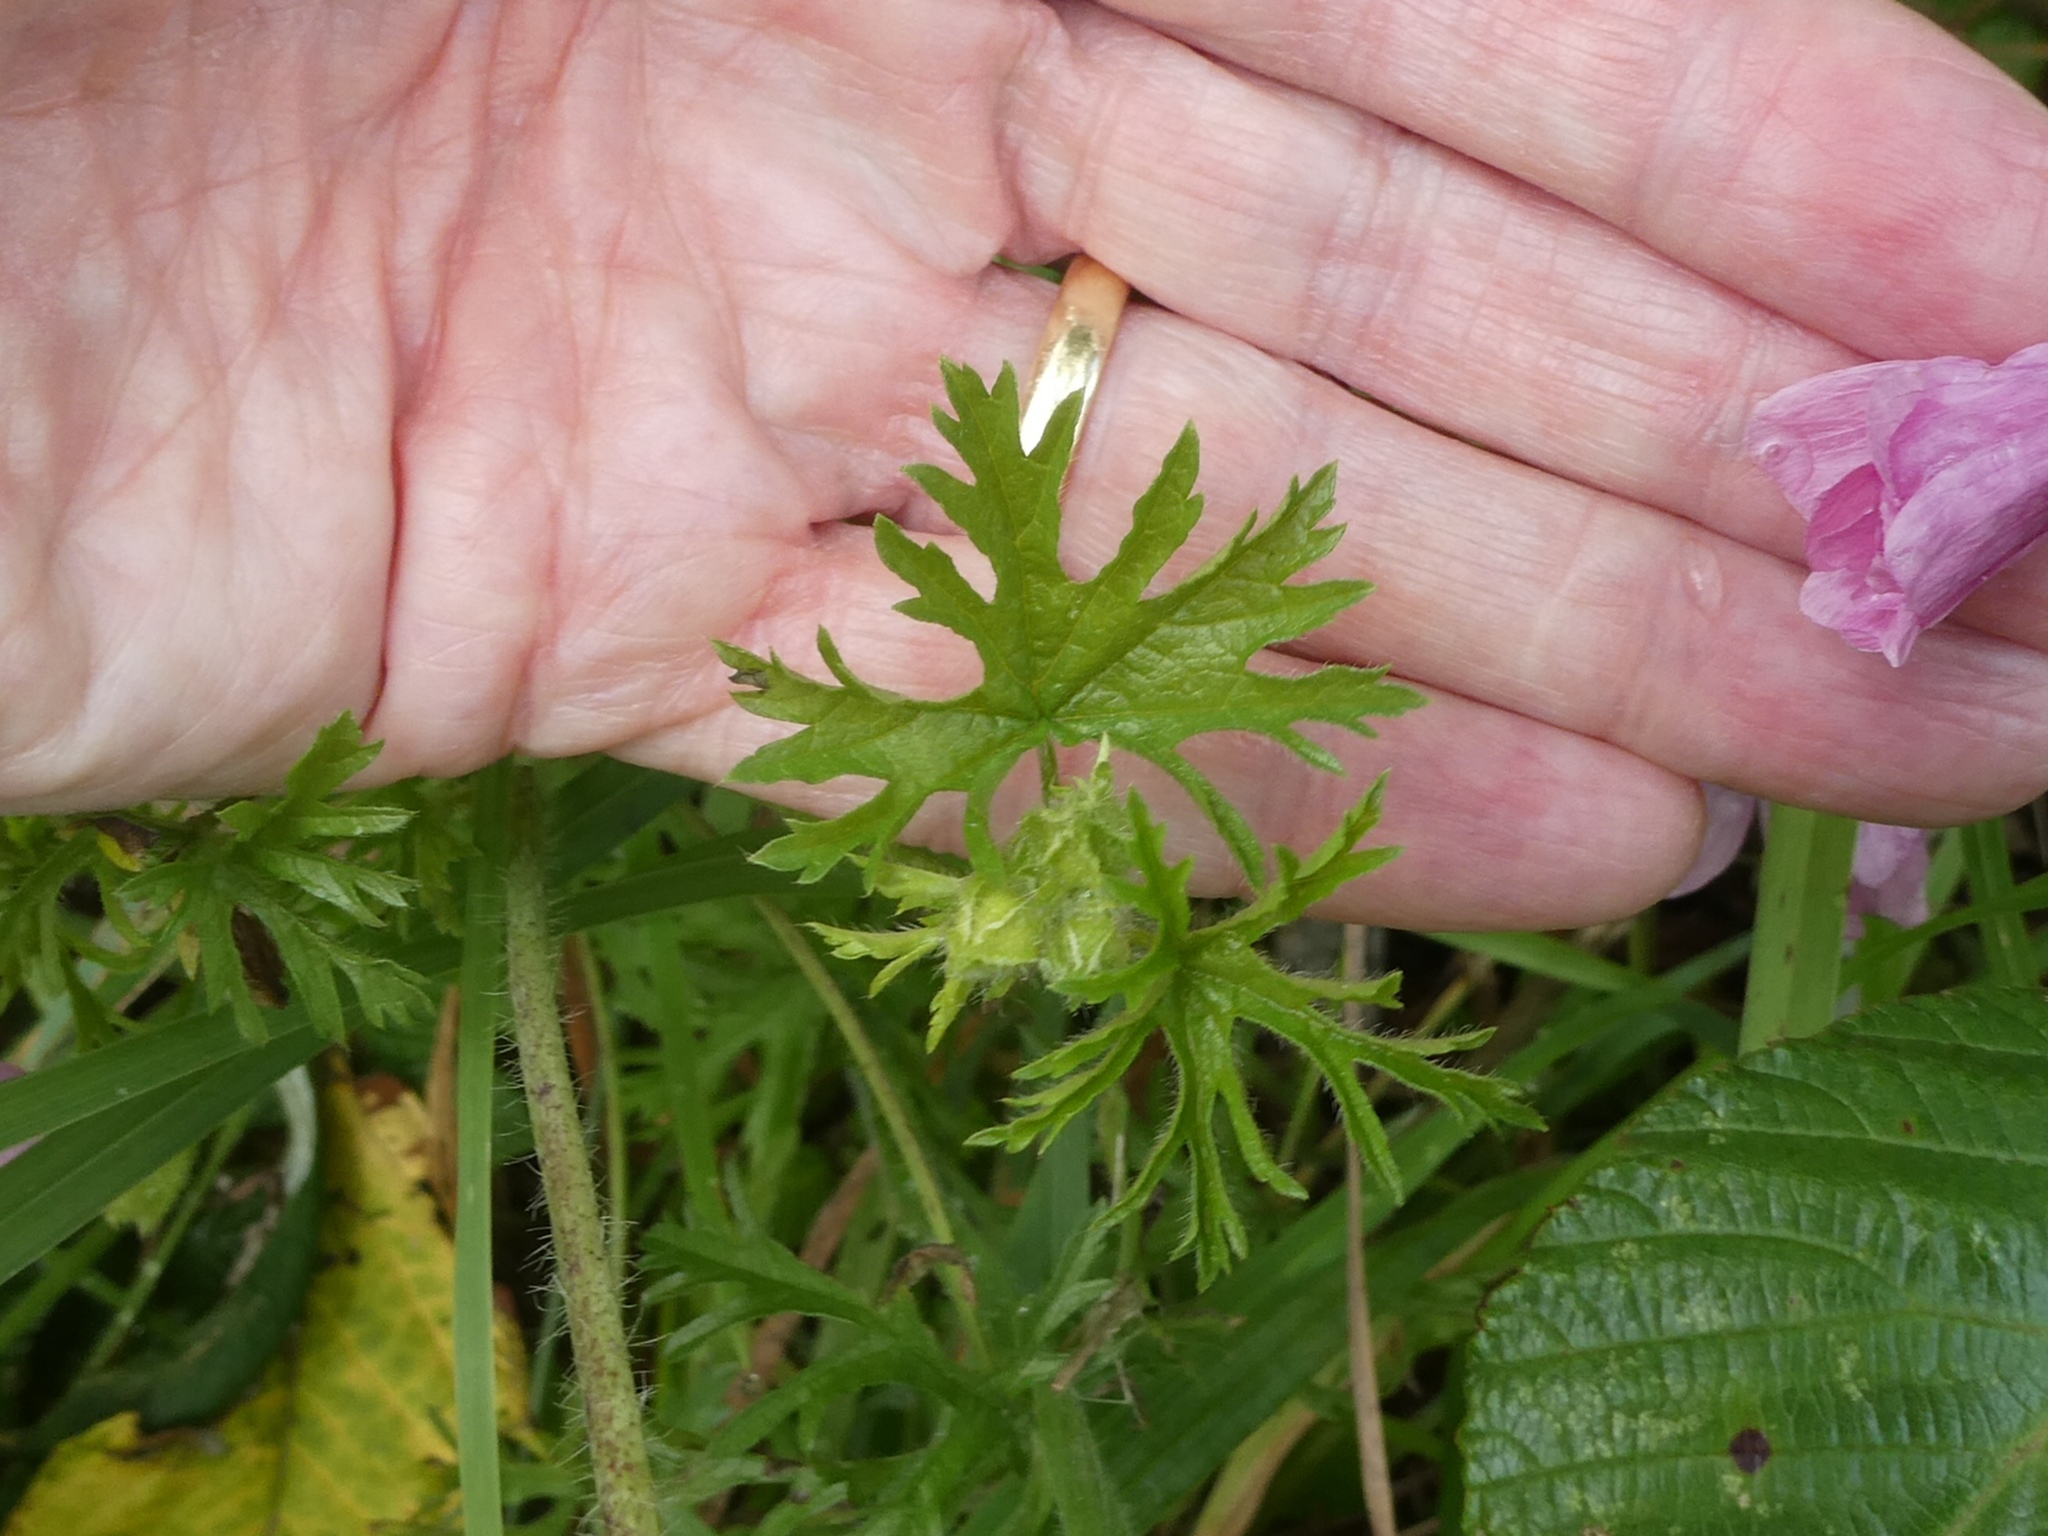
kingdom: Plantae
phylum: Tracheophyta
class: Magnoliopsida
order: Malvales
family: Malvaceae
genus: Malva
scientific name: Malva moschata
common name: Musk mallow
